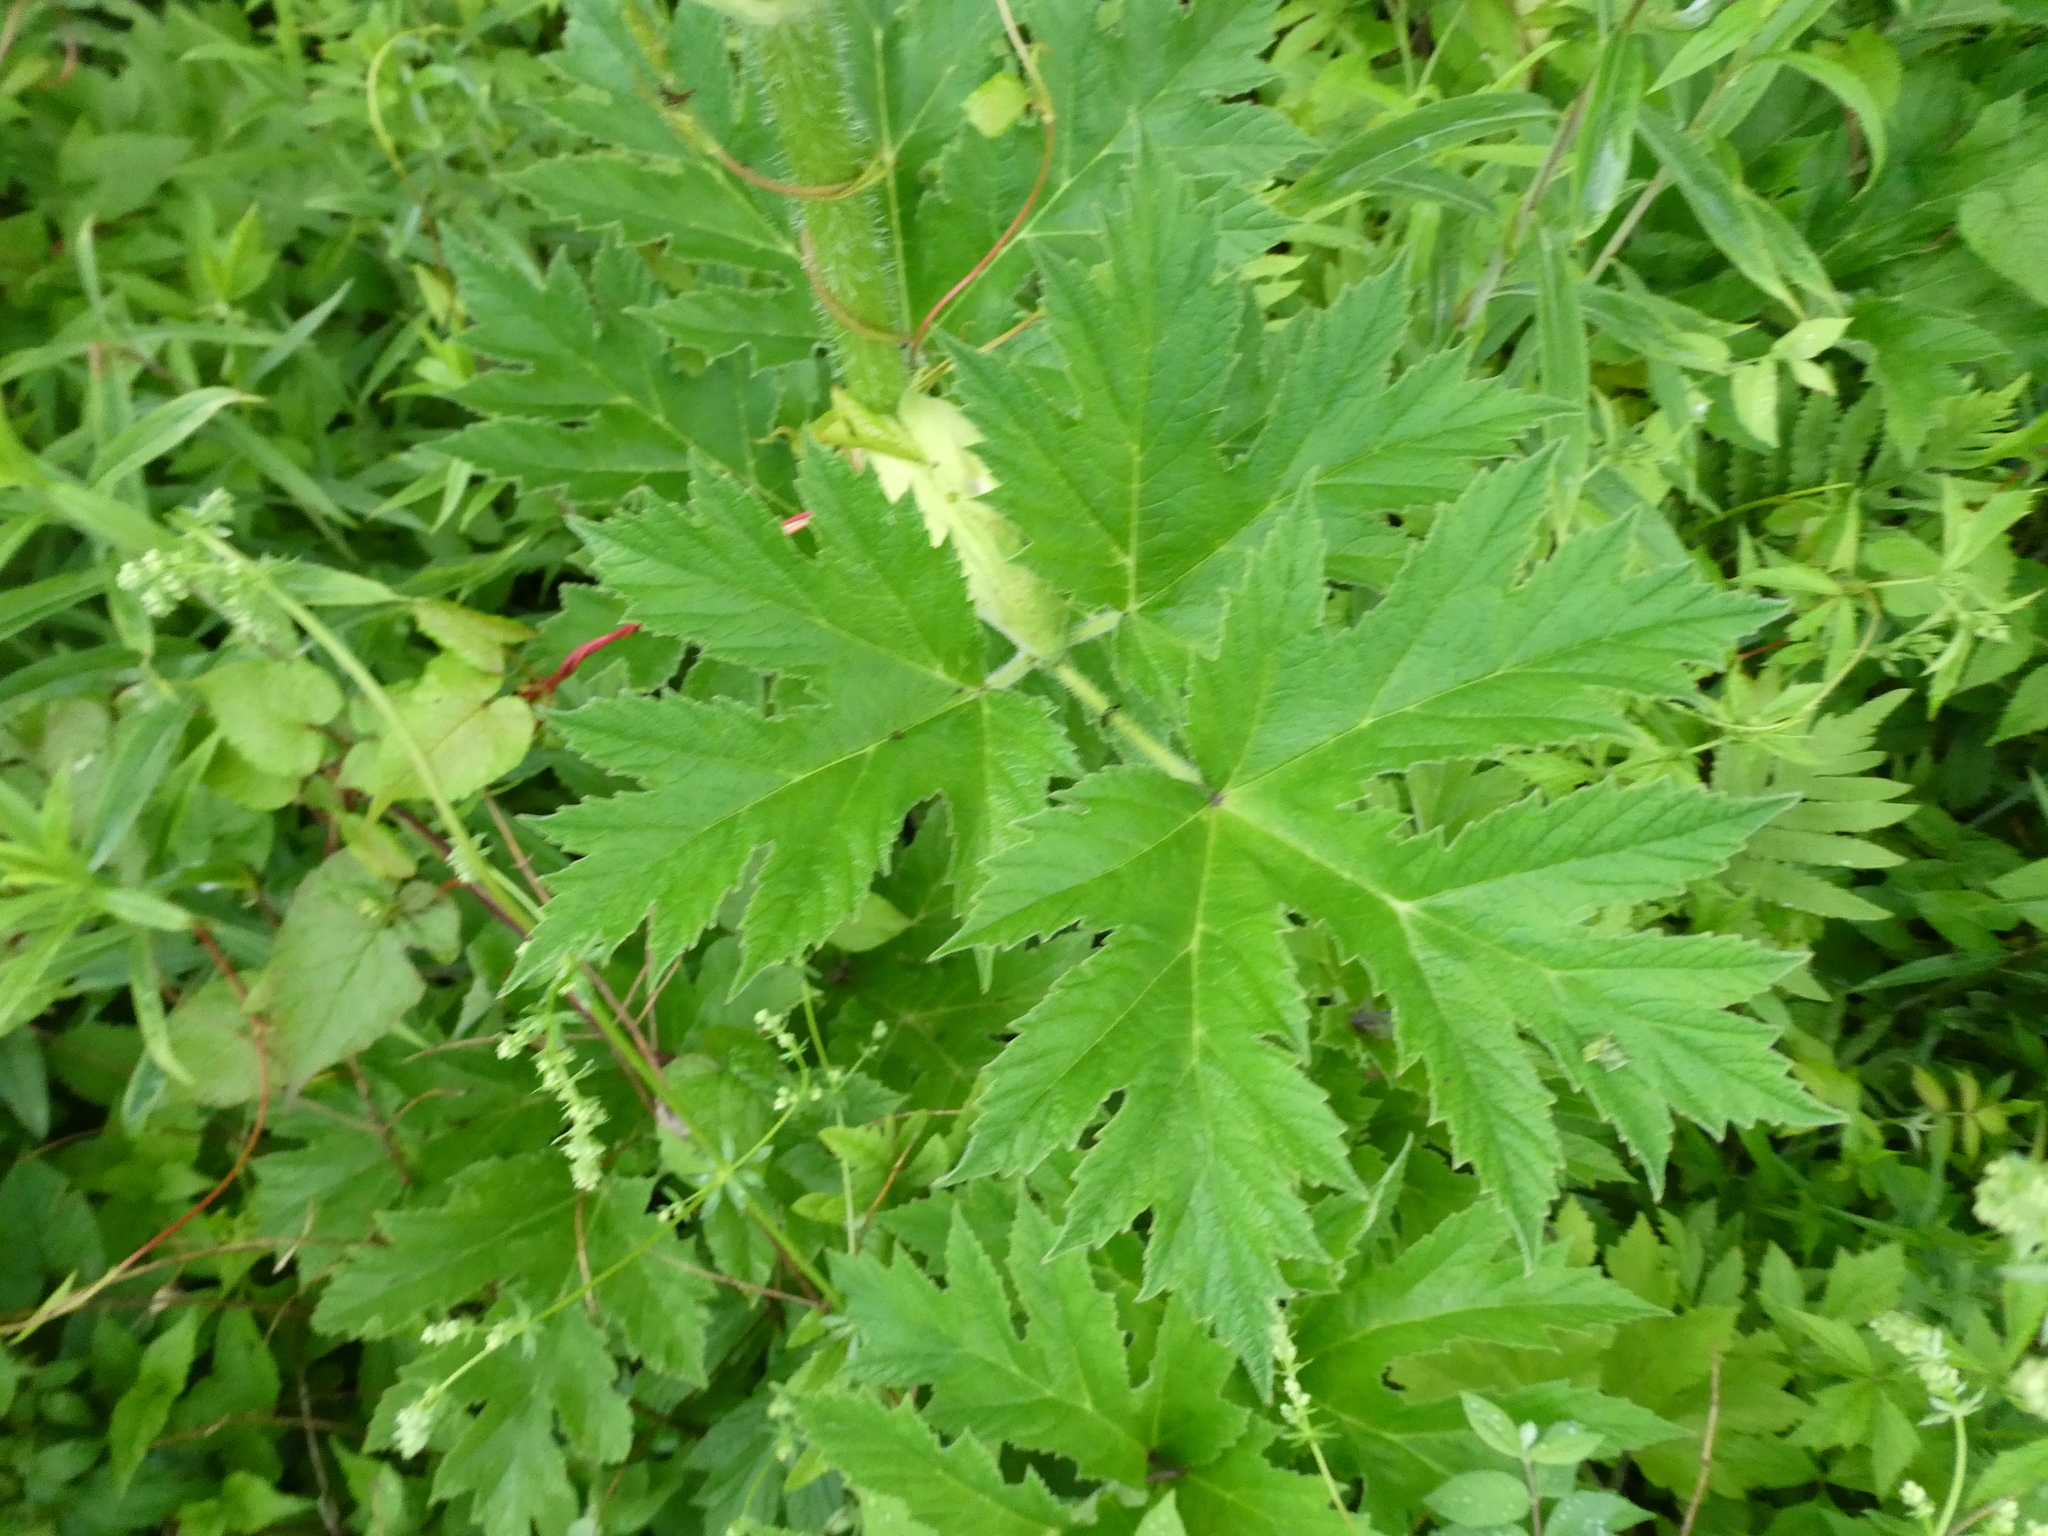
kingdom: Plantae
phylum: Tracheophyta
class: Magnoliopsida
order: Apiales
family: Apiaceae
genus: Heracleum
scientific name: Heracleum maximum
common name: American cow parsnip
